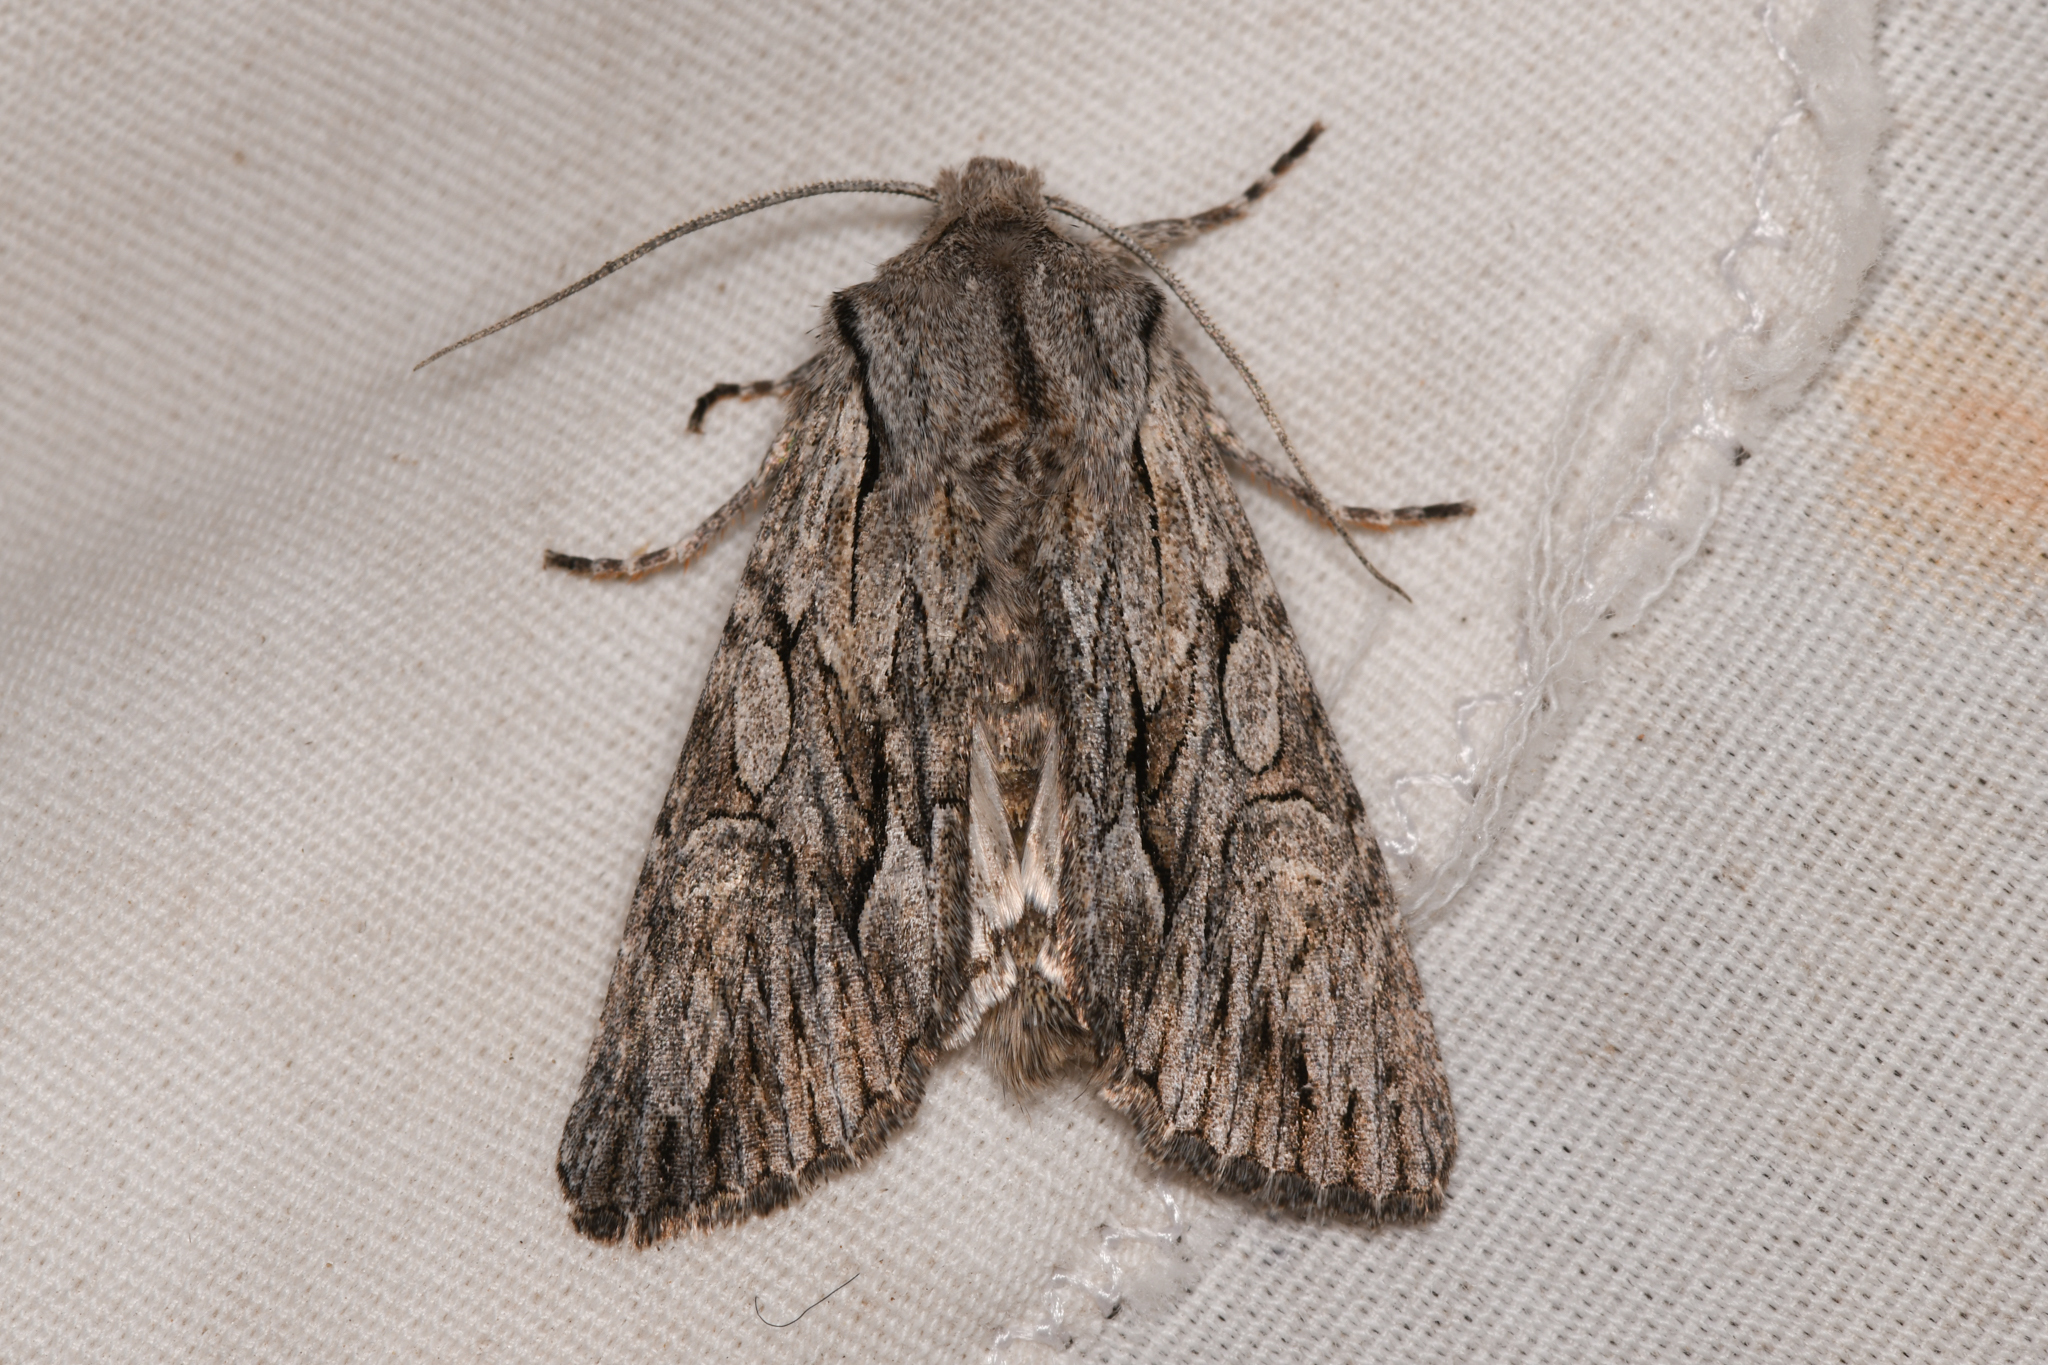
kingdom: Animalia
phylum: Arthropoda
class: Insecta
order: Lepidoptera
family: Noctuidae
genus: Fishia
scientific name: Fishia yosemitae
